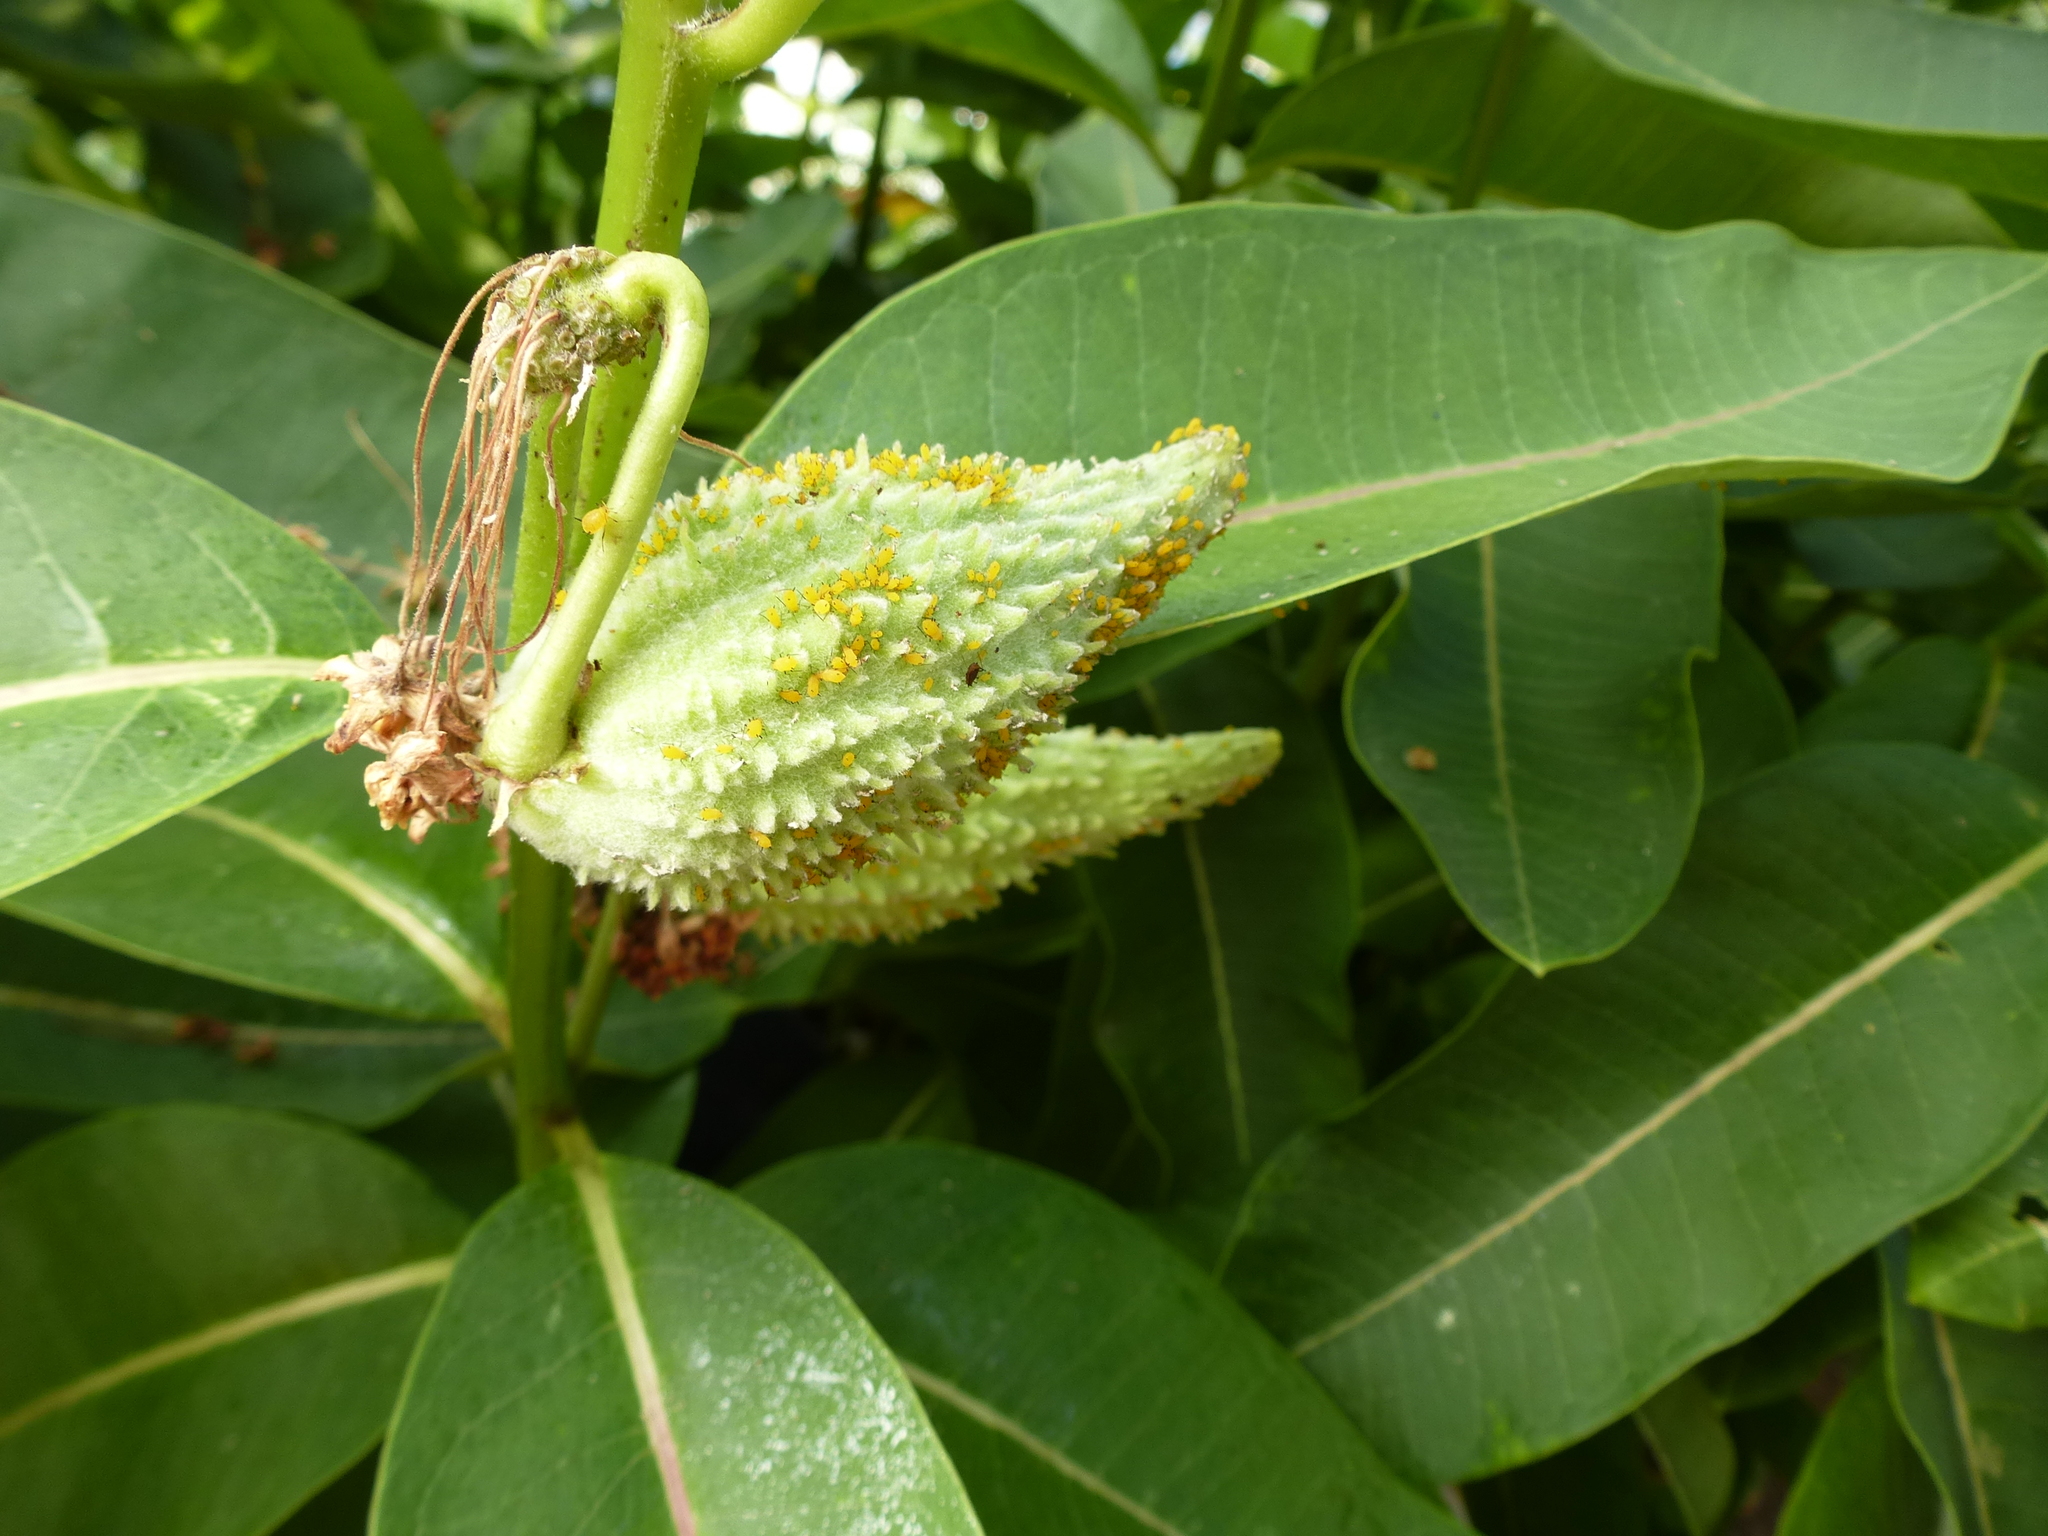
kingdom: Animalia
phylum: Arthropoda
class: Insecta
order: Hemiptera
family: Aphididae
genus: Aphis
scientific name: Aphis nerii
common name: Oleander aphid
